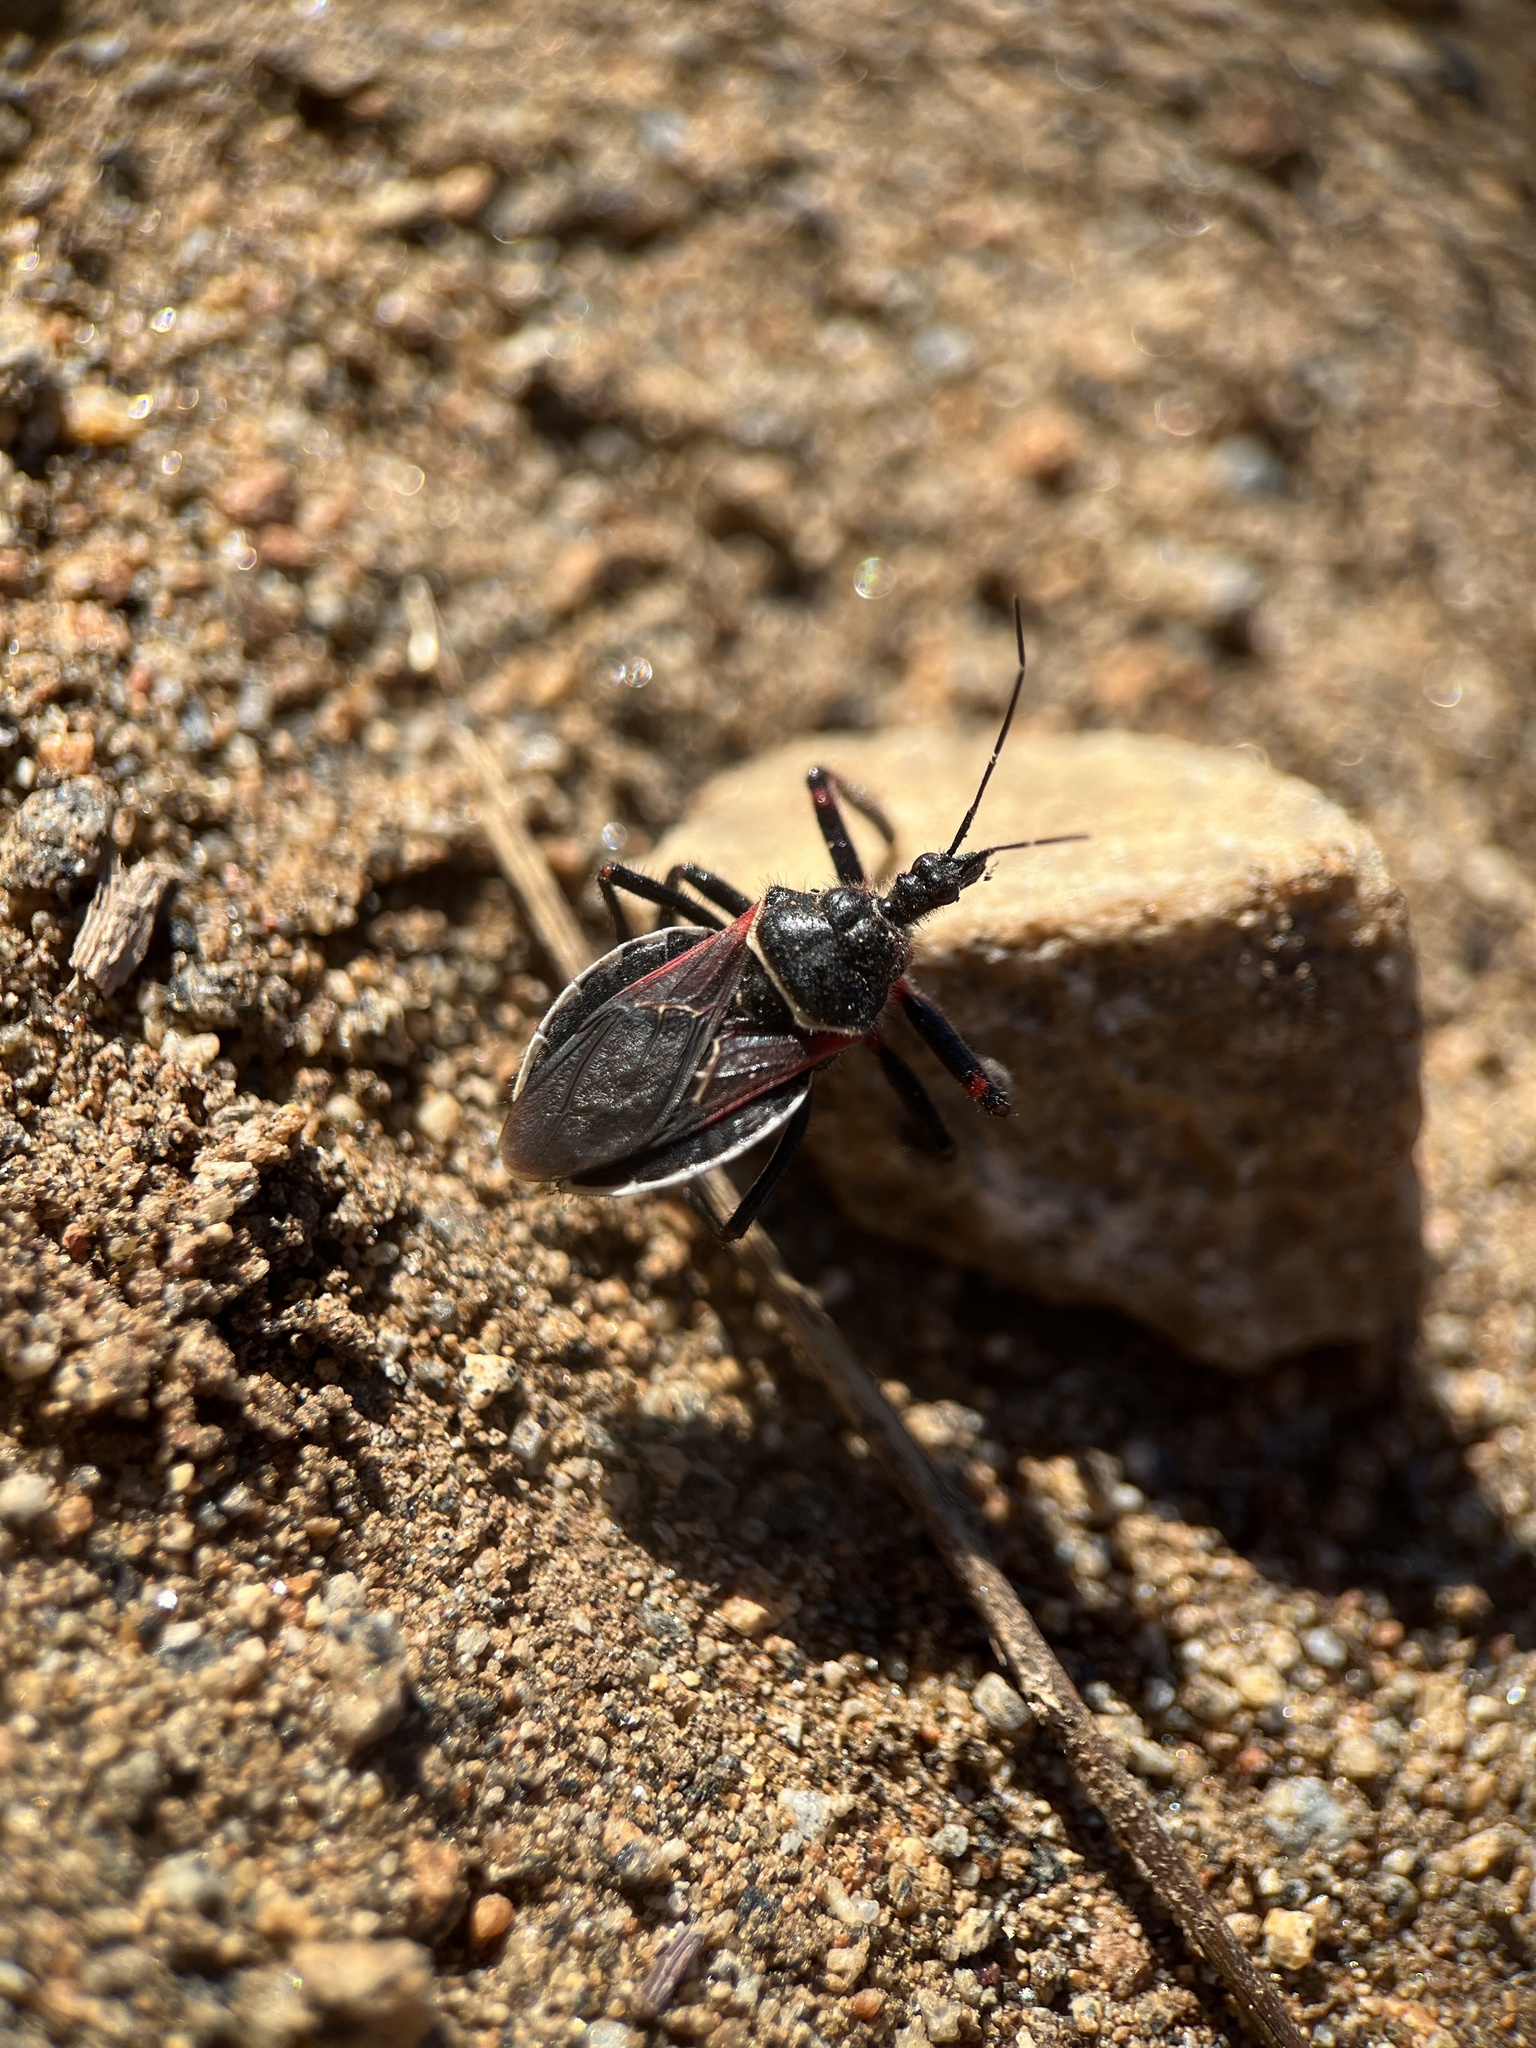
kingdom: Animalia
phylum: Arthropoda
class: Insecta
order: Hemiptera
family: Reduviidae
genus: Apiomerus
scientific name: Apiomerus californicus
